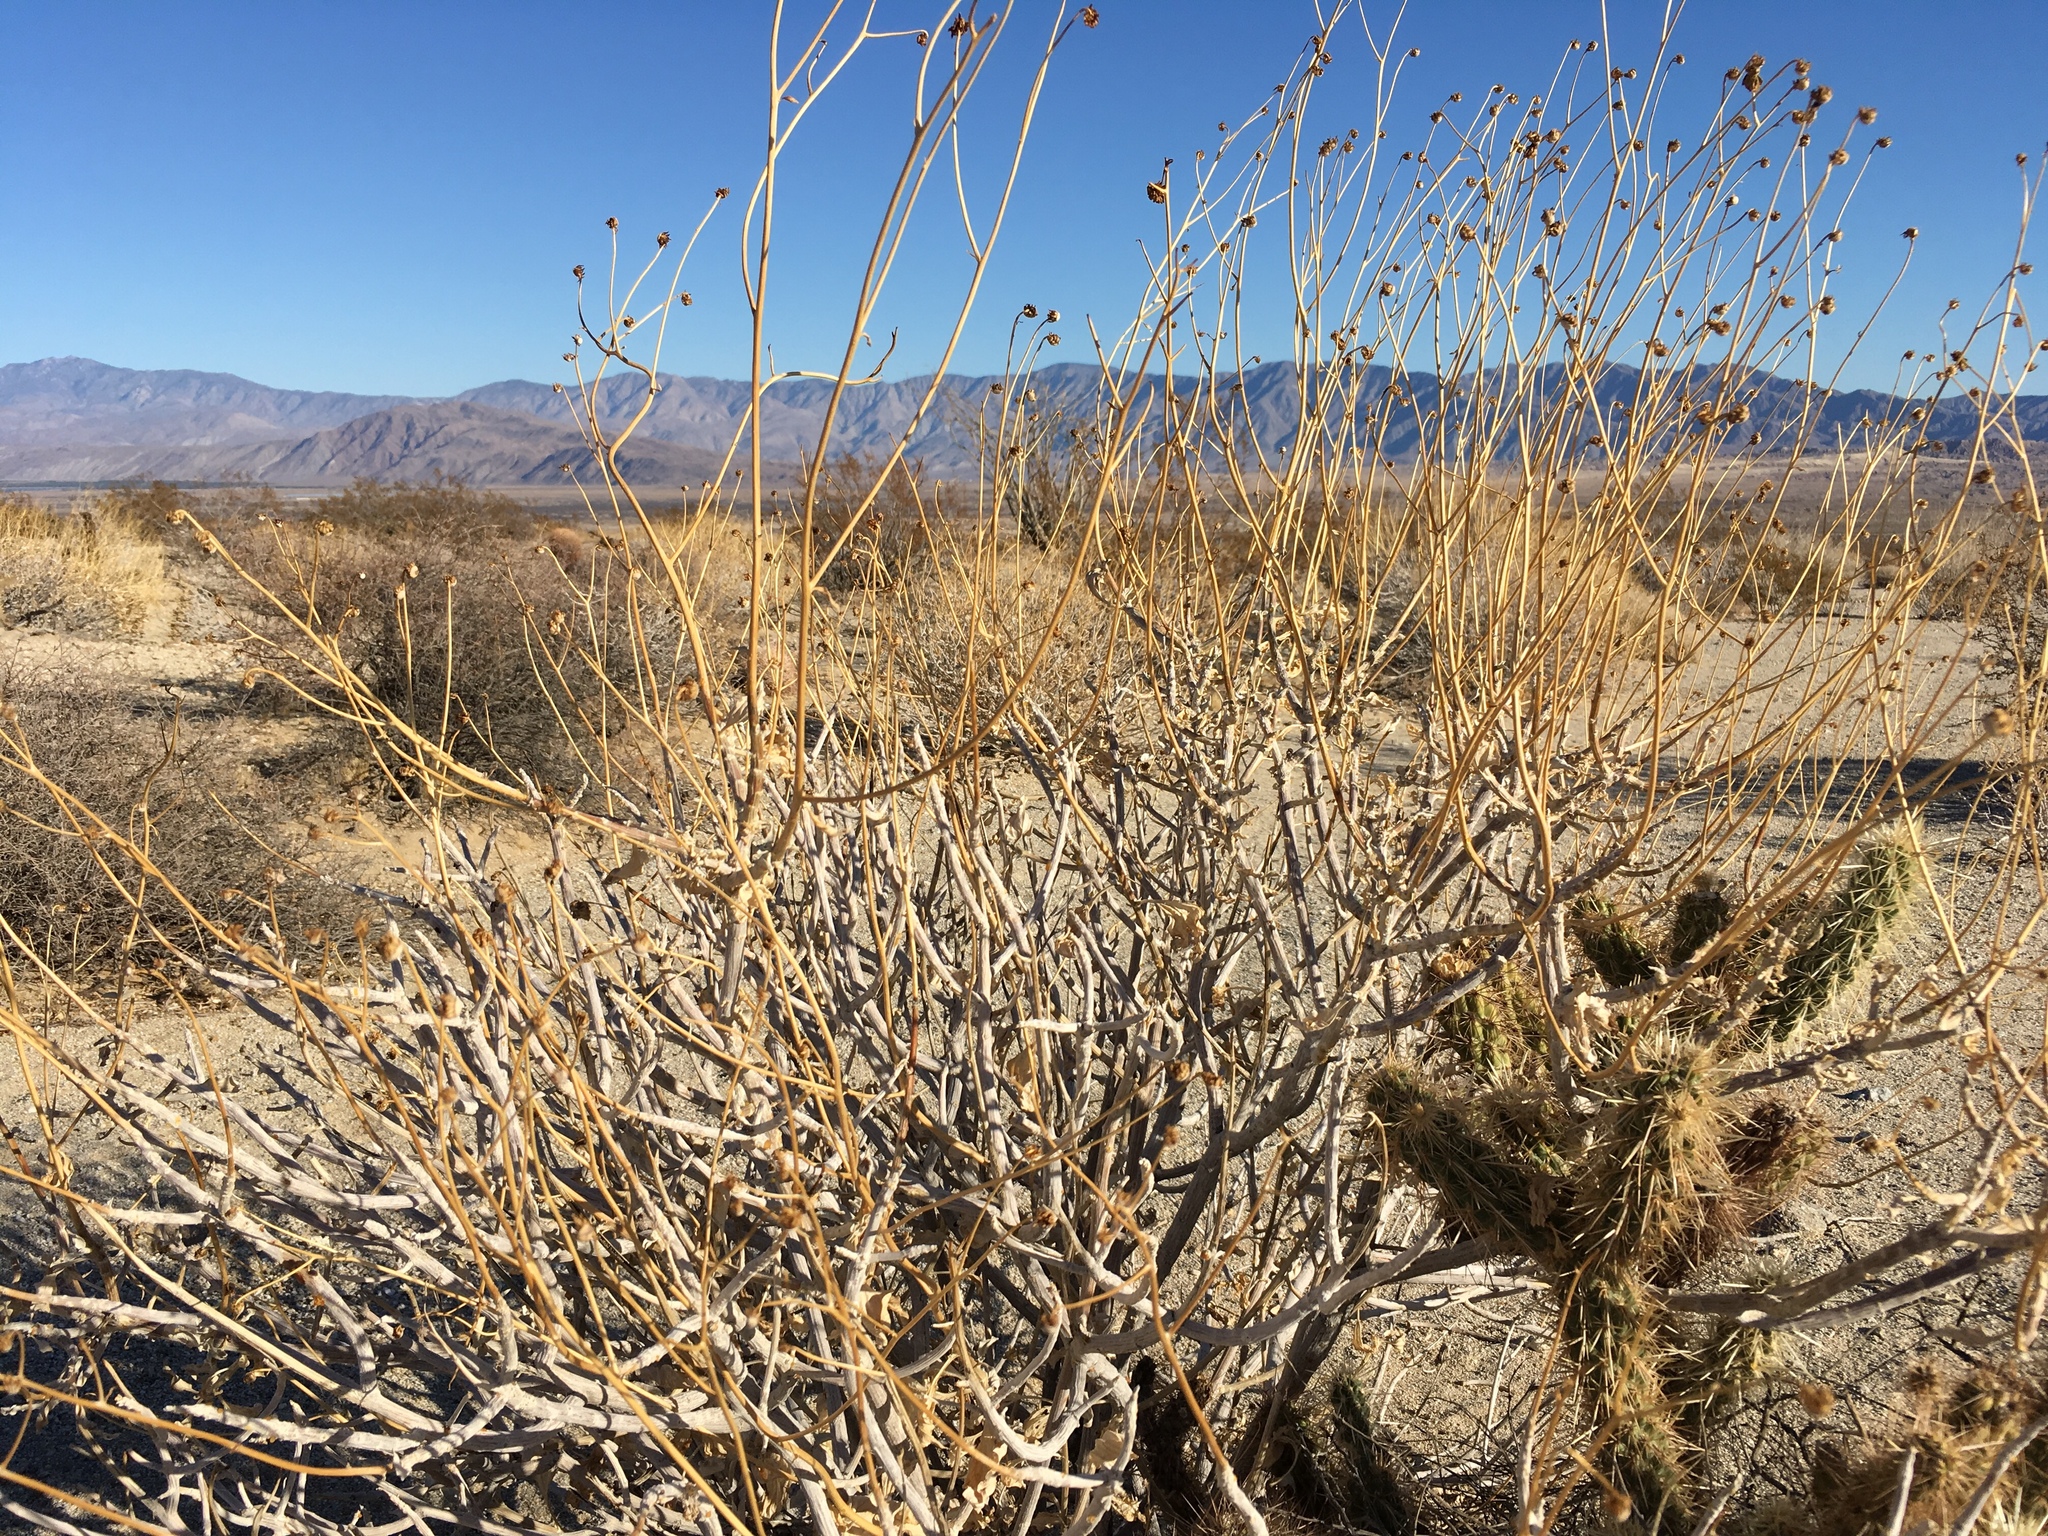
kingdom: Plantae
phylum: Tracheophyta
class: Magnoliopsida
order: Asterales
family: Asteraceae
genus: Encelia
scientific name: Encelia farinosa
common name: Brittlebush
